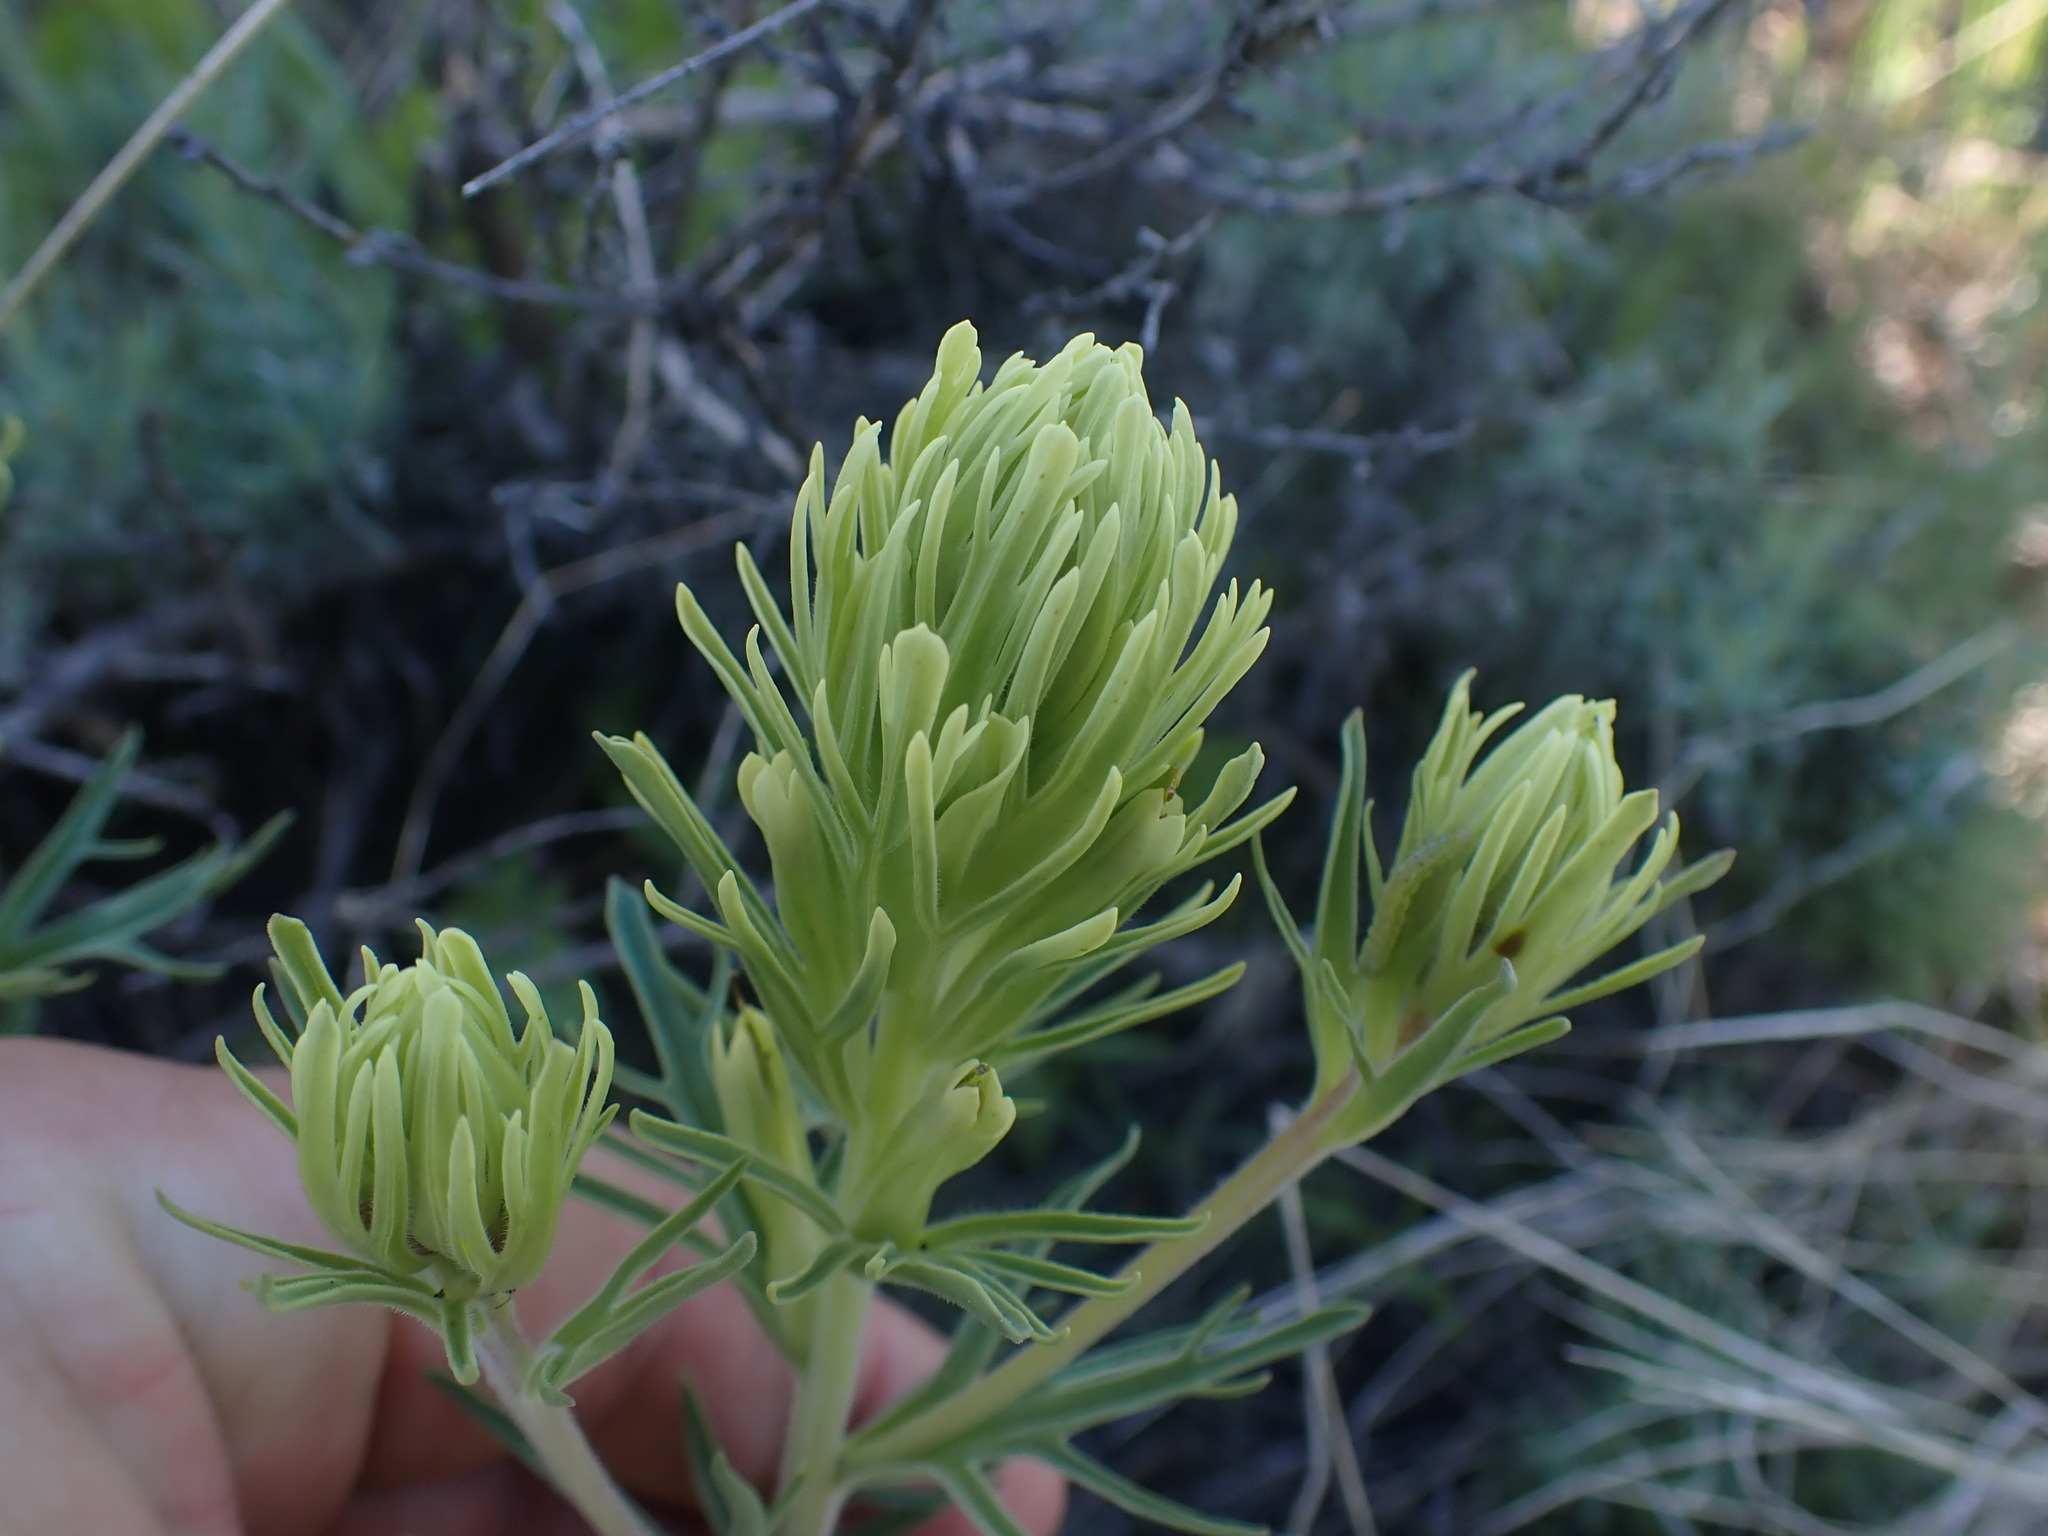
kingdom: Plantae
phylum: Tracheophyta
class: Magnoliopsida
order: Lamiales
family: Orobanchaceae
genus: Castilleja
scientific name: Castilleja thompsonii
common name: Thompson's paintbrush
